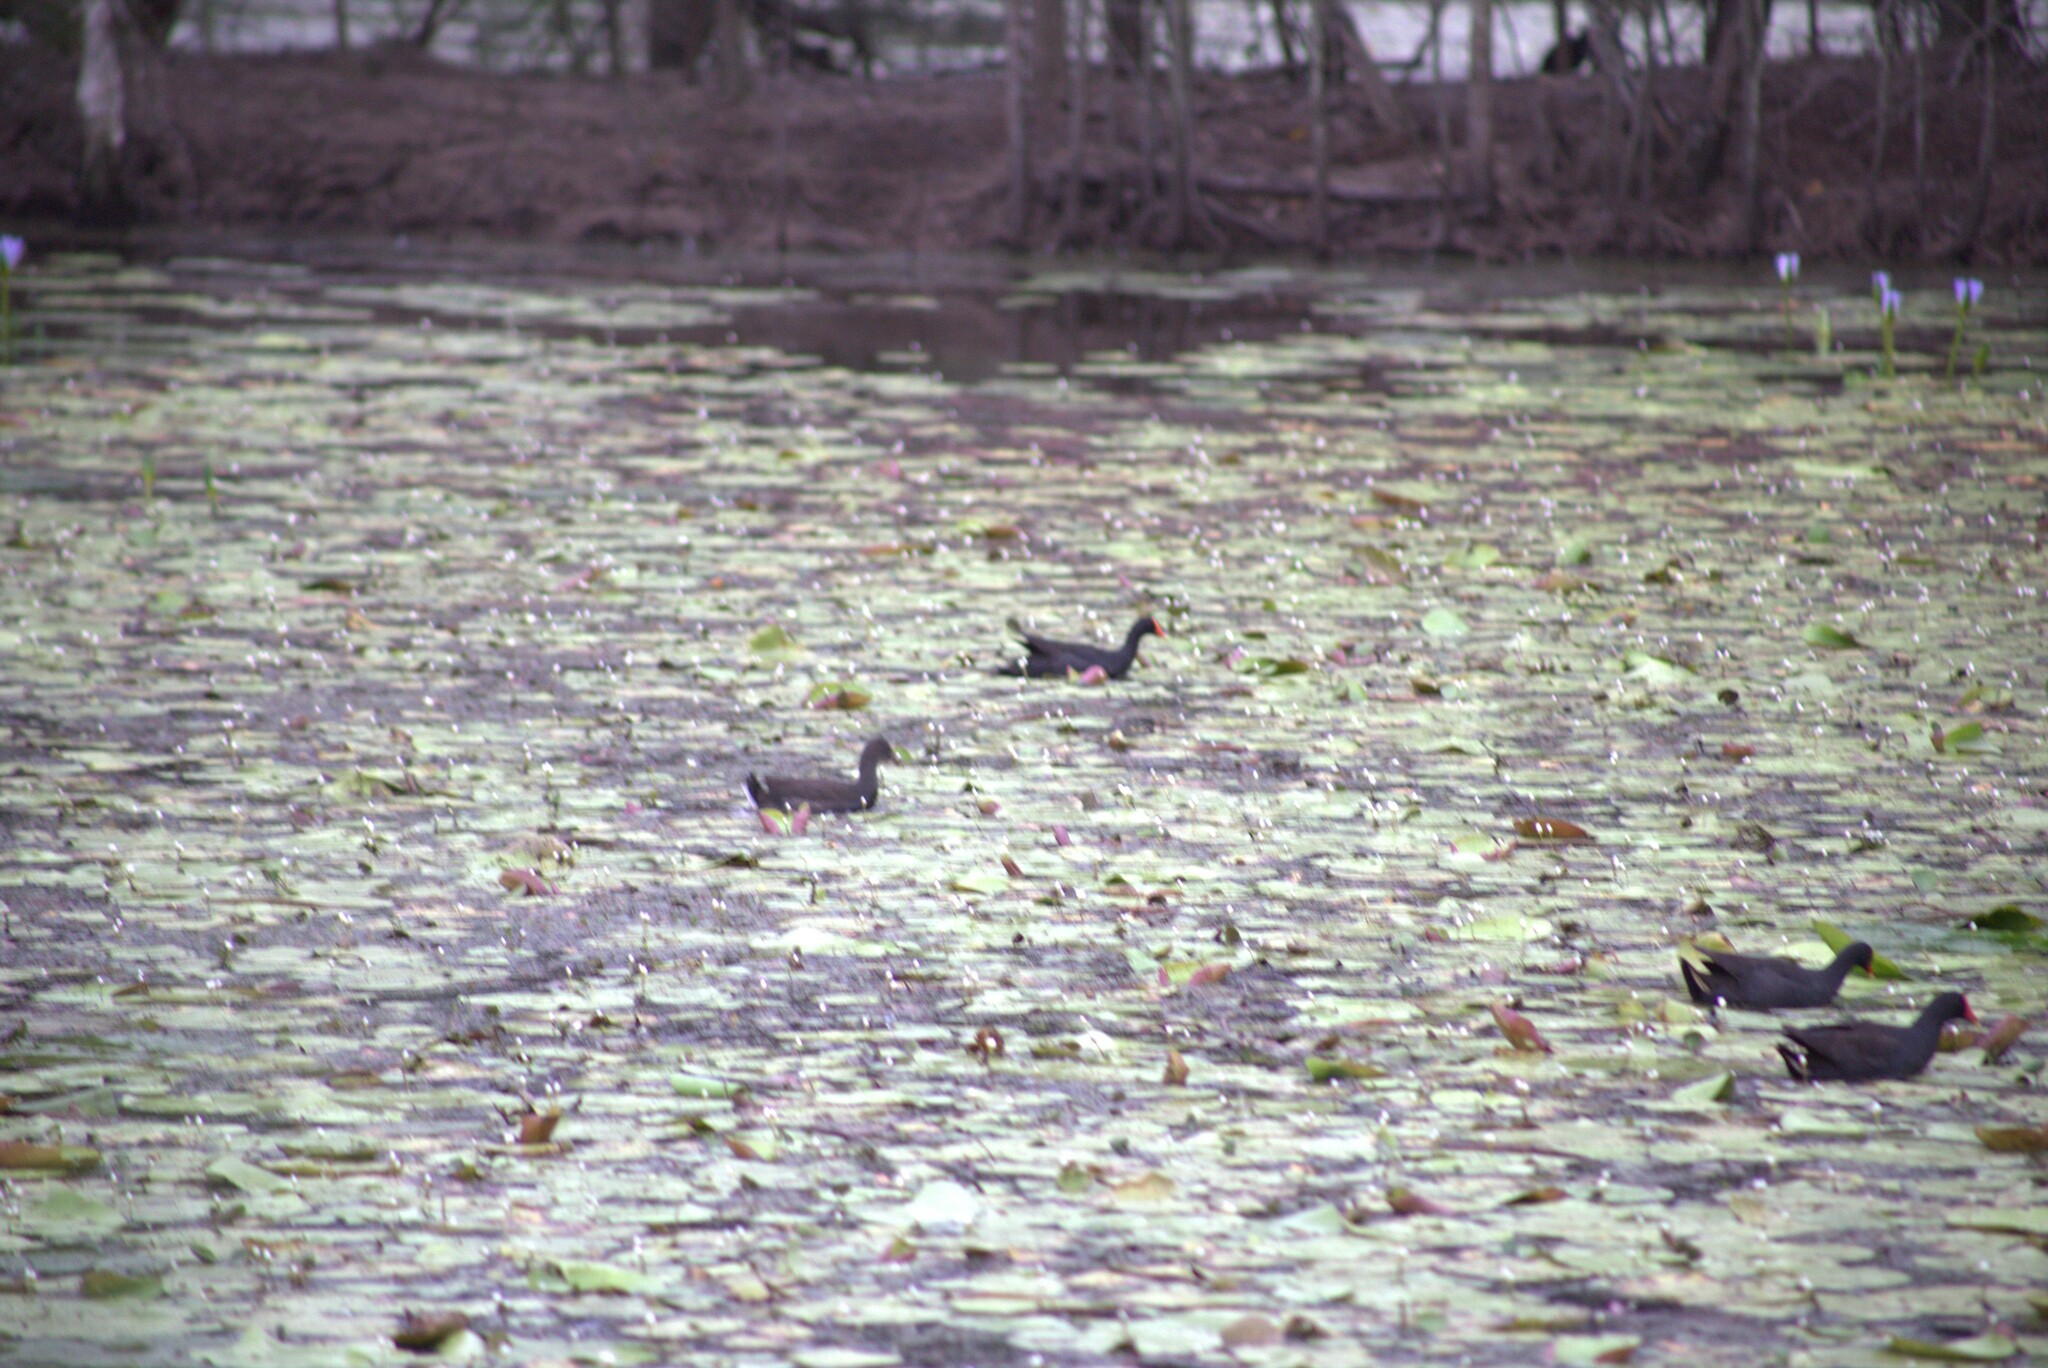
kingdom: Animalia
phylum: Chordata
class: Aves
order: Gruiformes
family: Rallidae
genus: Gallinula
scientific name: Gallinula tenebrosa
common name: Dusky moorhen
